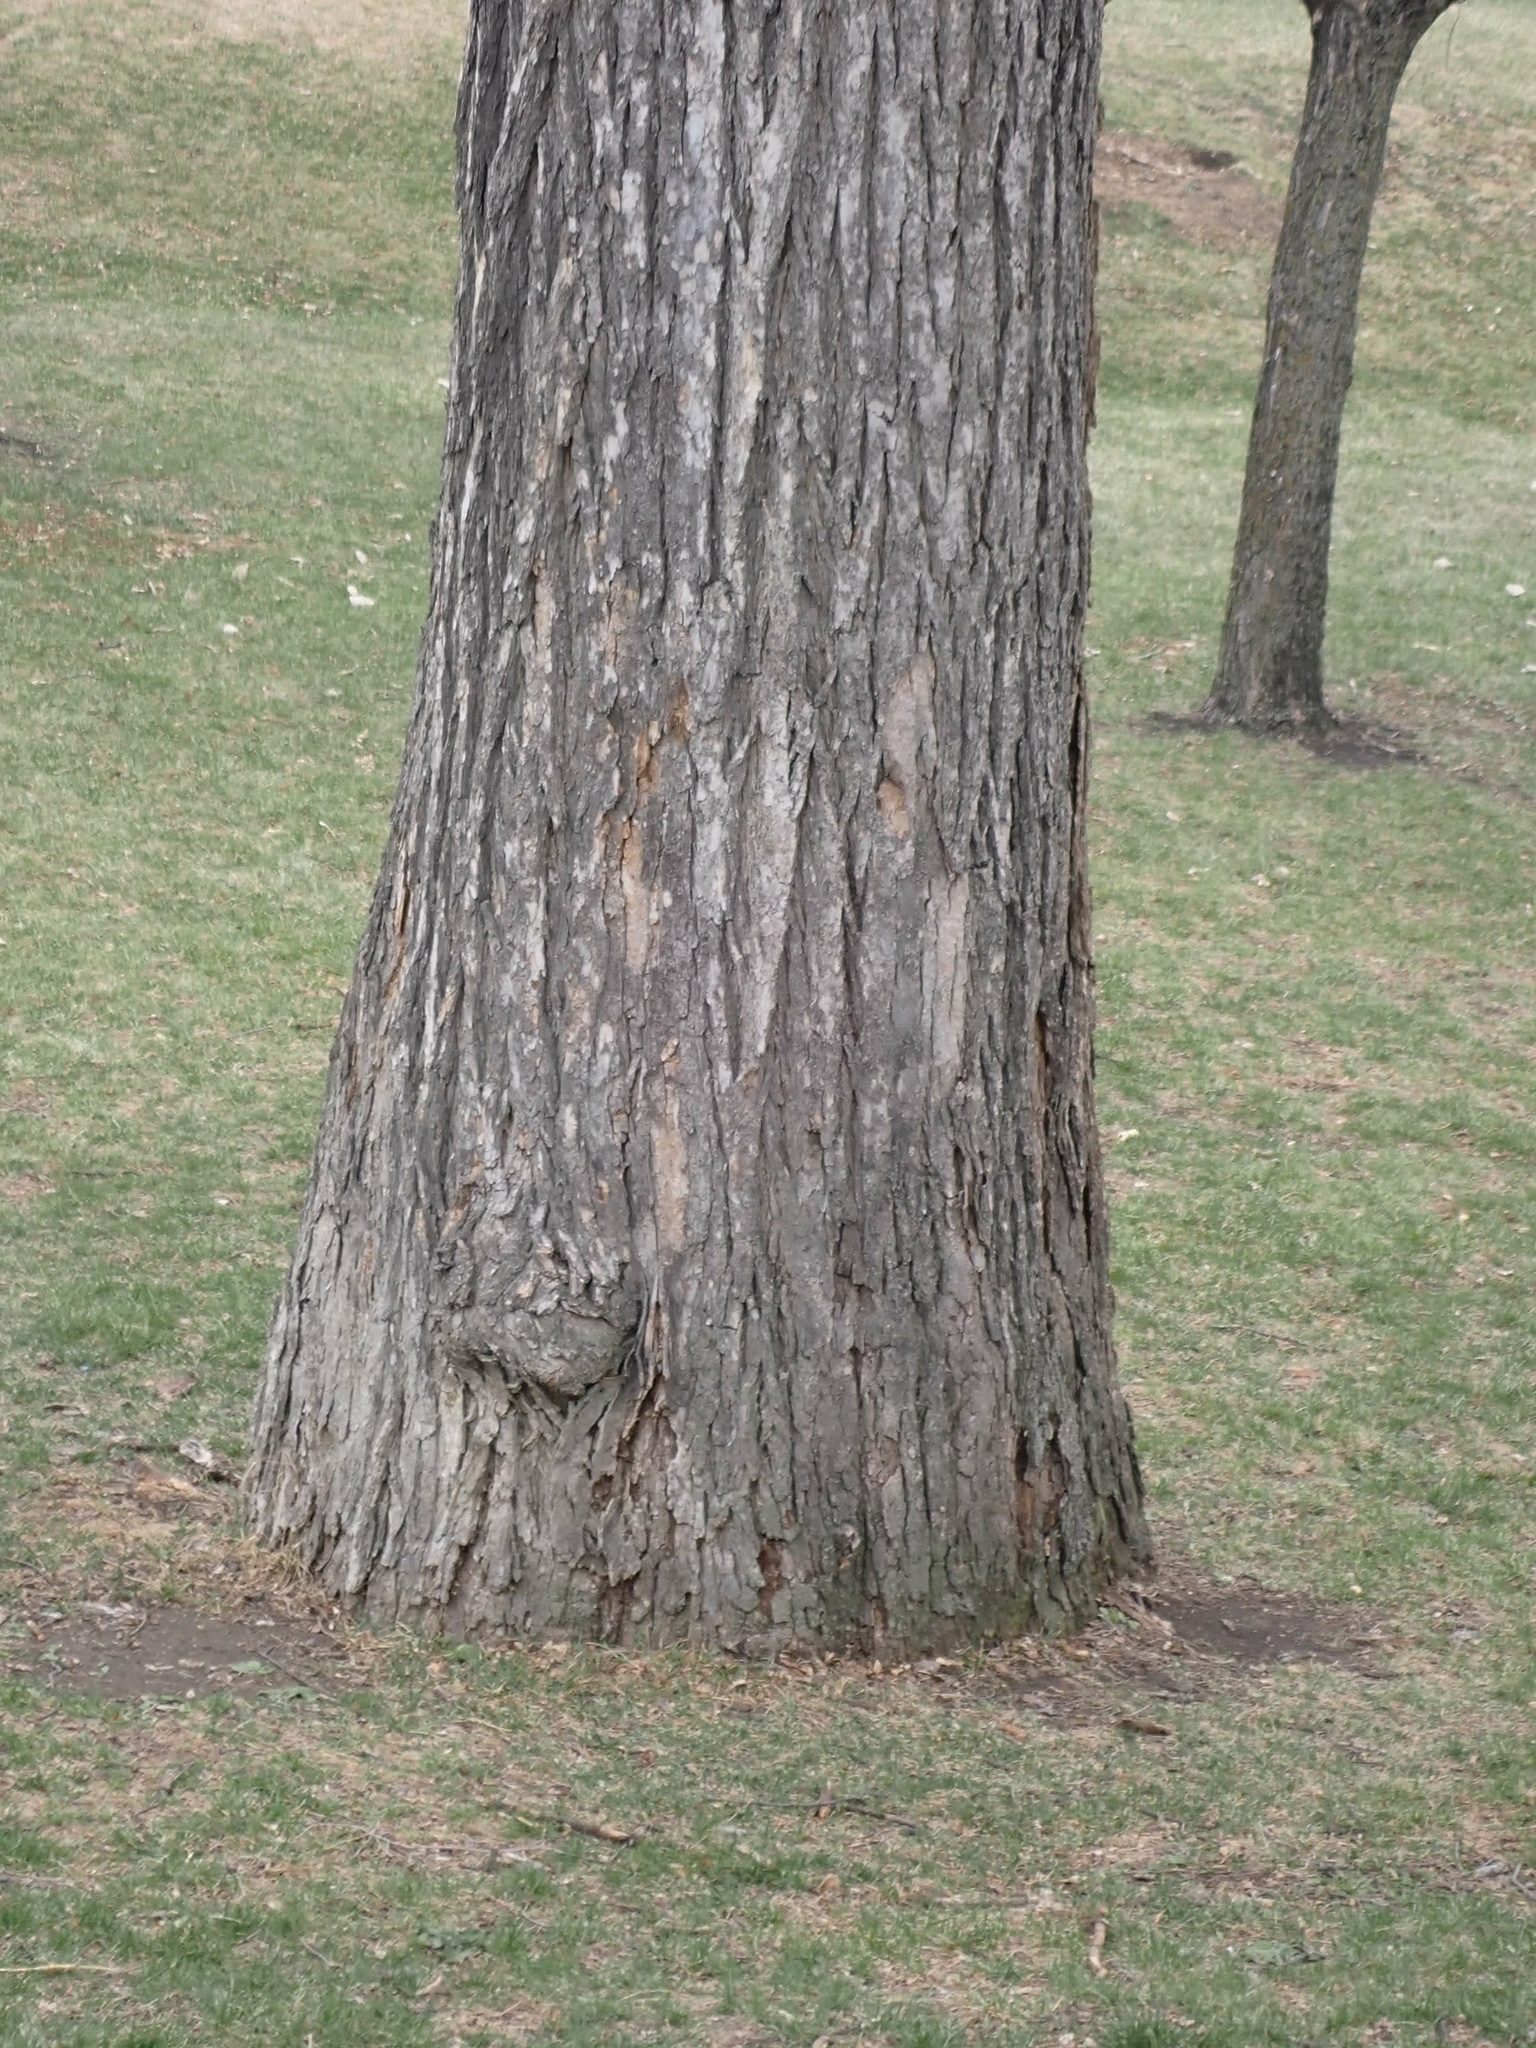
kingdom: Plantae
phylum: Tracheophyta
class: Magnoliopsida
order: Malpighiales
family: Salicaceae
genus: Populus
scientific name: Populus deltoides
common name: Eastern cottonwood
